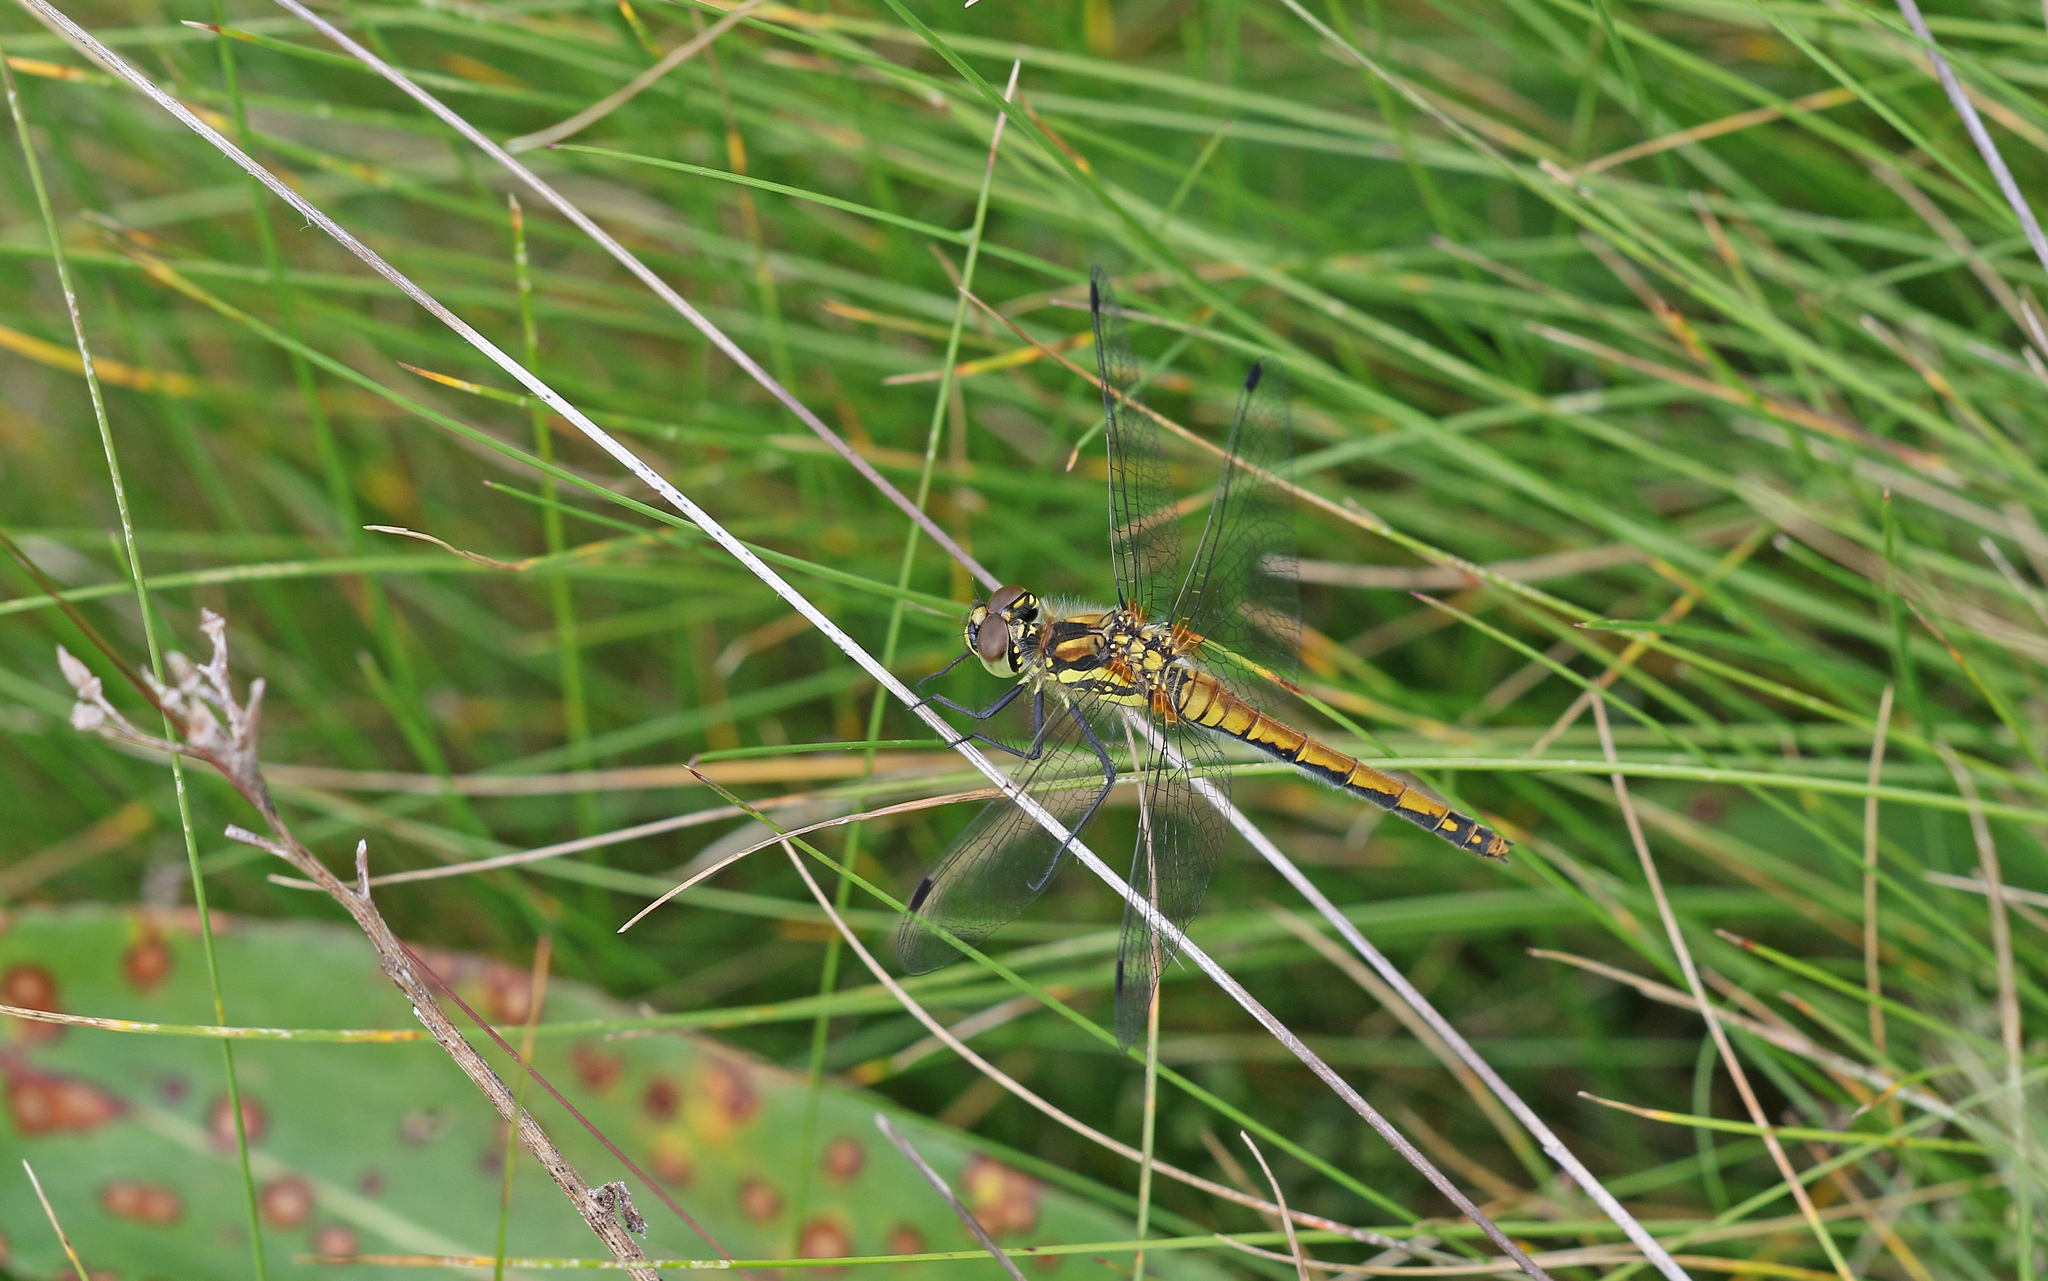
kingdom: Animalia
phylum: Arthropoda
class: Insecta
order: Odonata
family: Libellulidae
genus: Sympetrum
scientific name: Sympetrum danae
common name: Black darter
